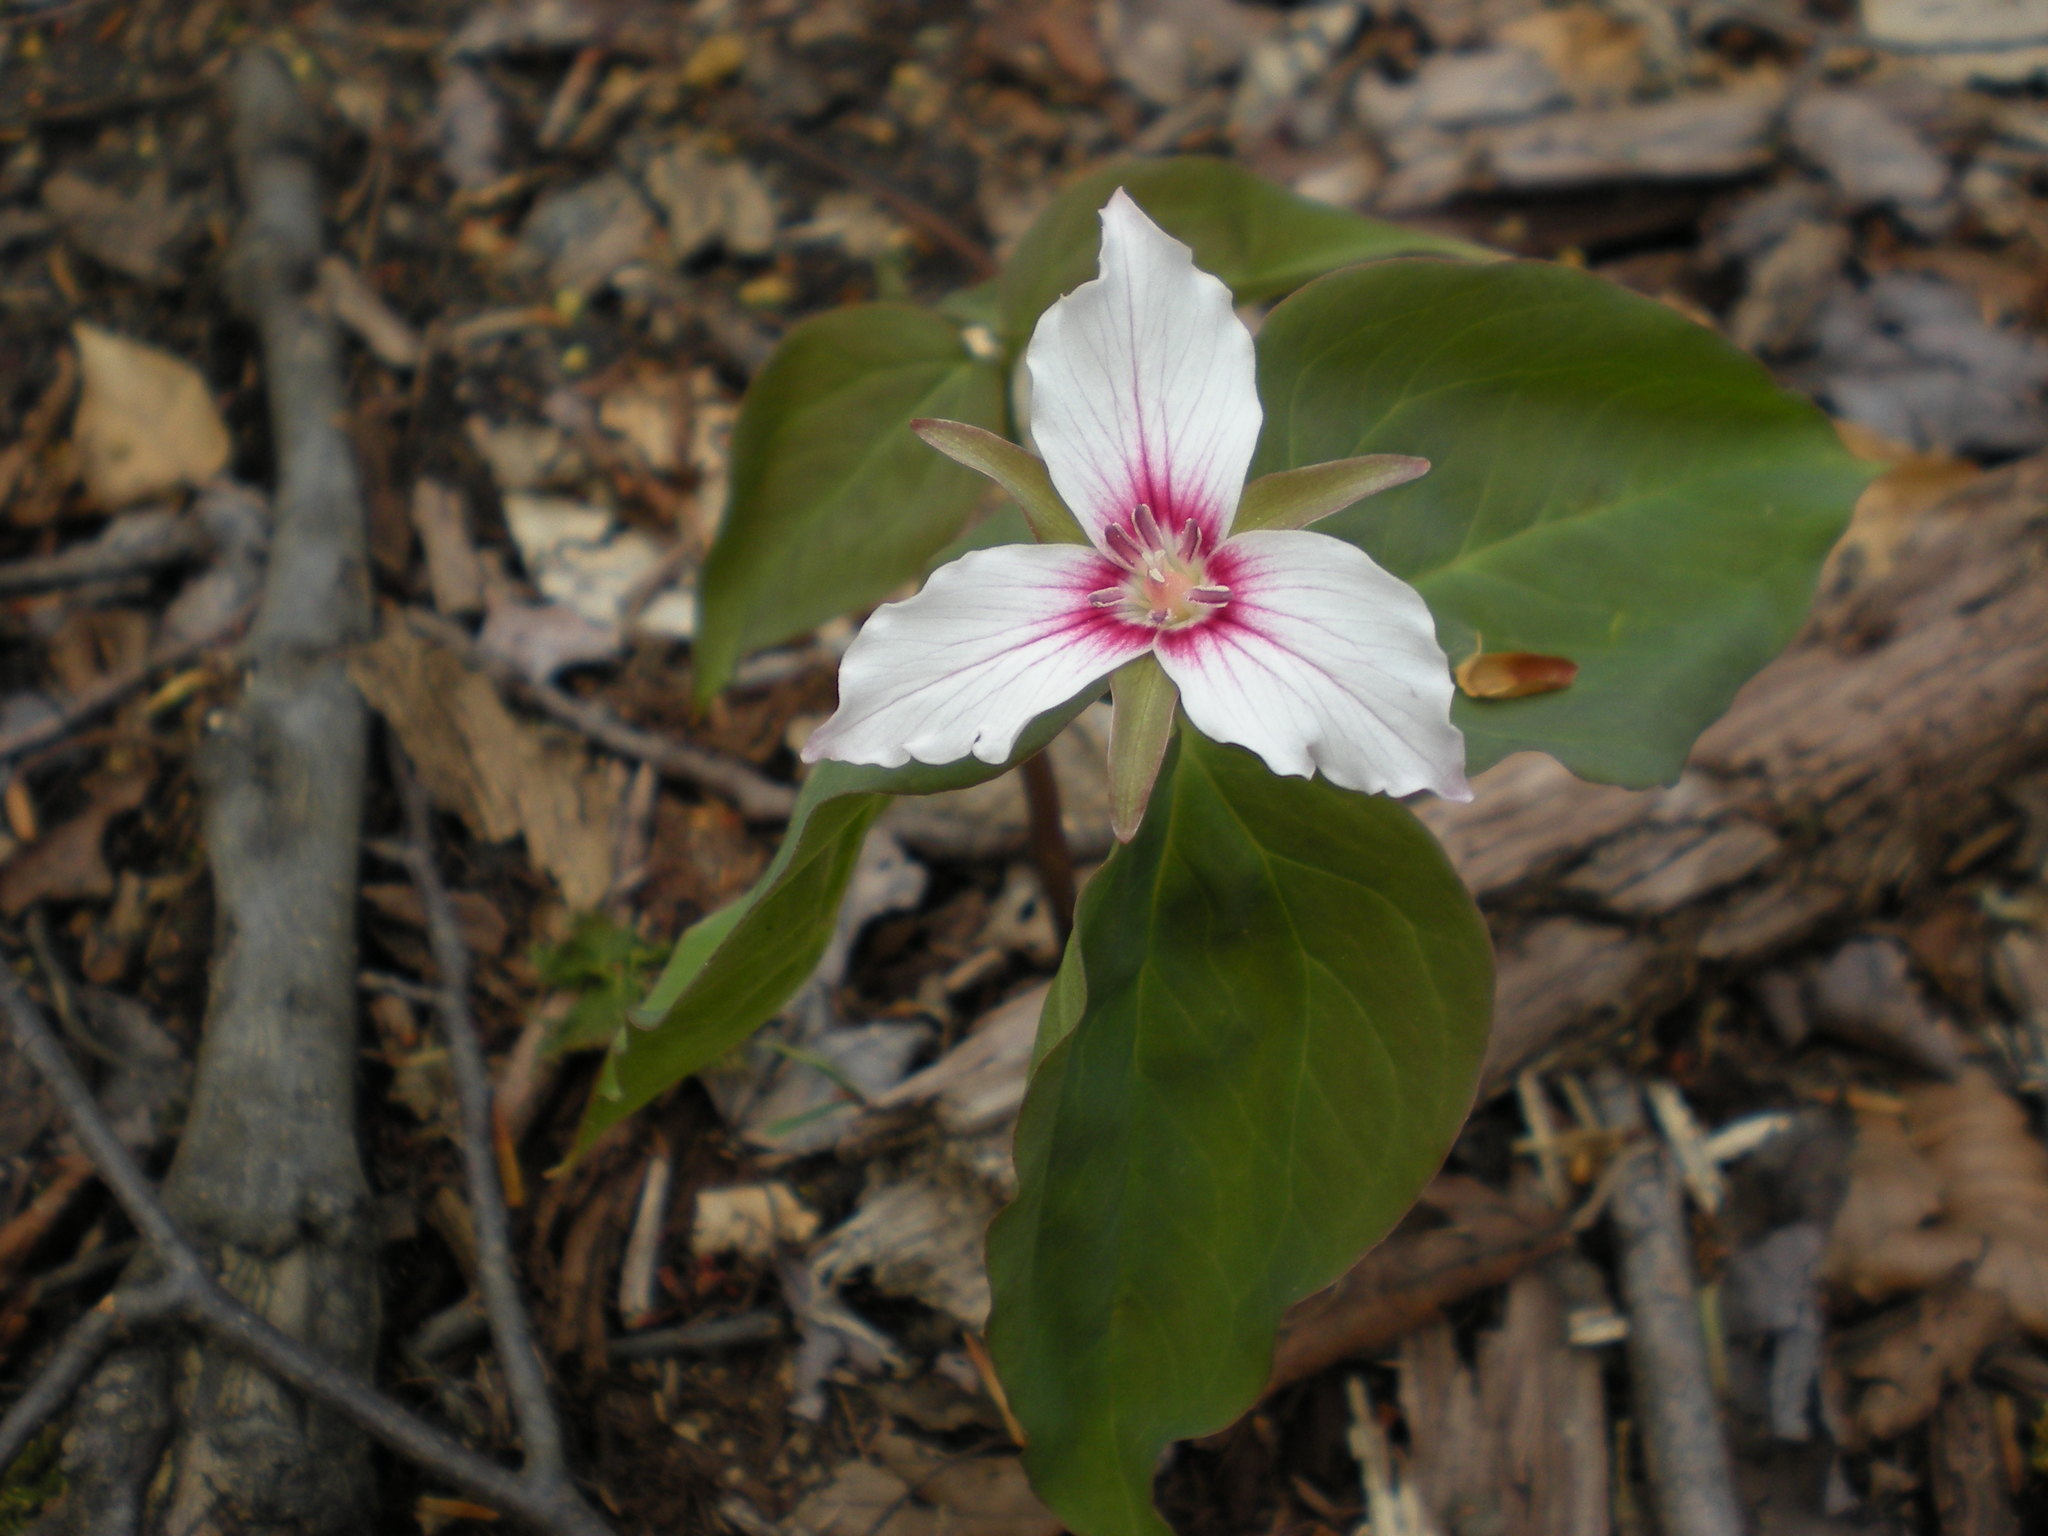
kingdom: Plantae
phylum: Tracheophyta
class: Liliopsida
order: Liliales
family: Melanthiaceae
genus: Trillium
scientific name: Trillium undulatum
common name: Paint trillium
